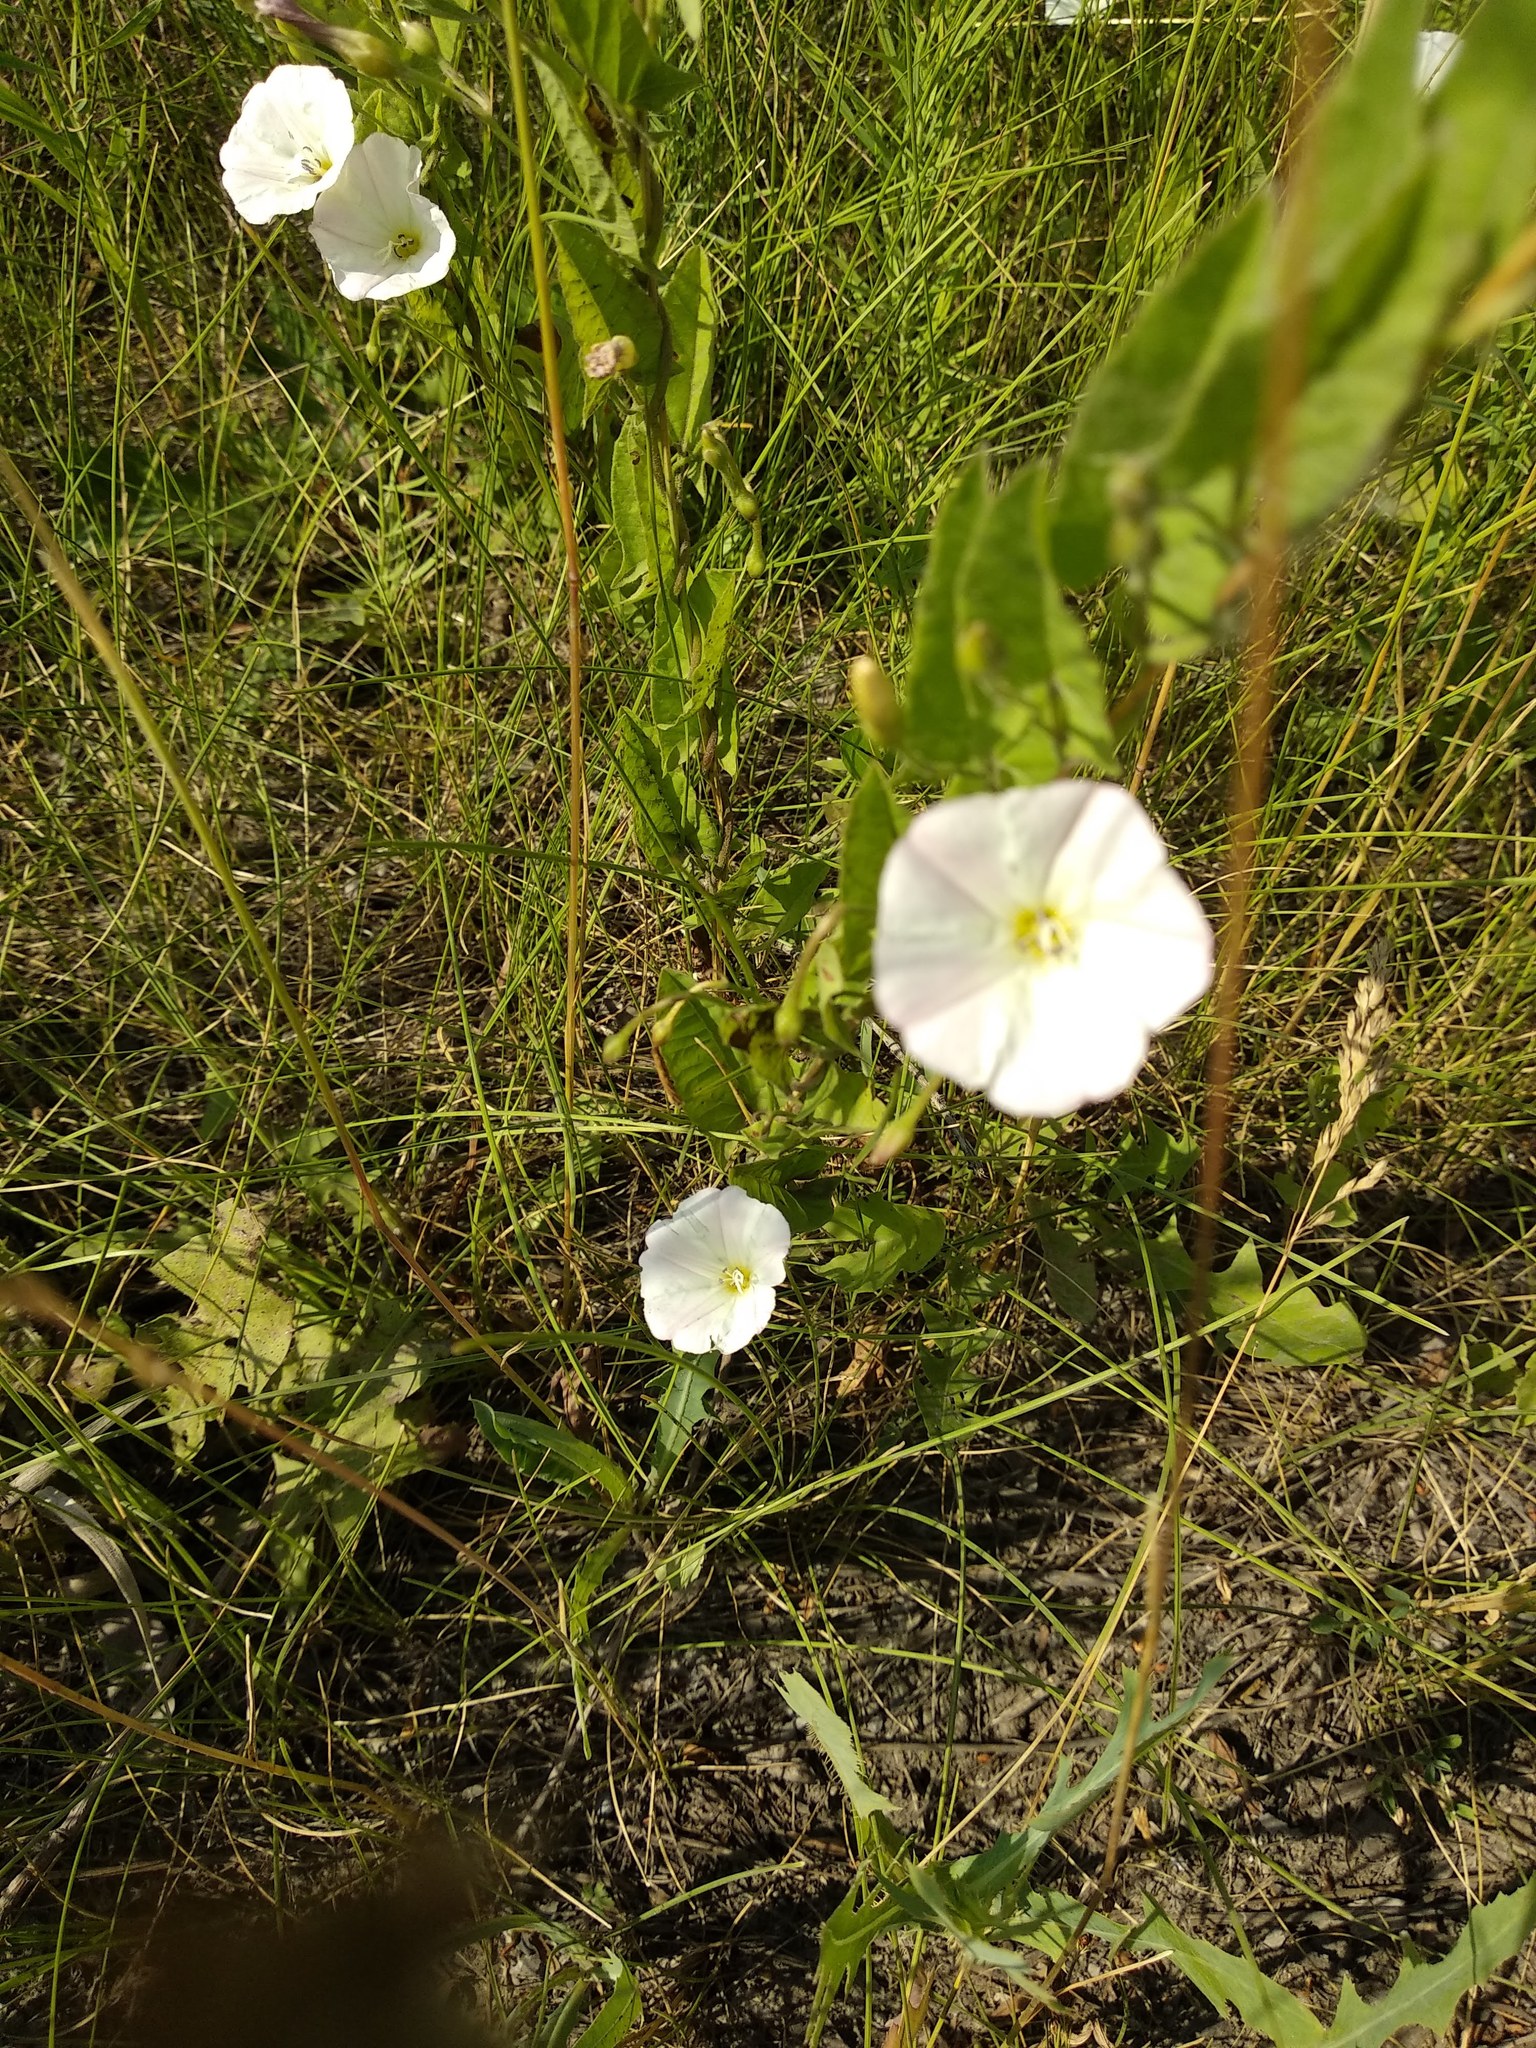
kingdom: Plantae
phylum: Tracheophyta
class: Magnoliopsida
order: Solanales
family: Convolvulaceae
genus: Convolvulus
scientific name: Convolvulus arvensis
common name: Field bindweed
